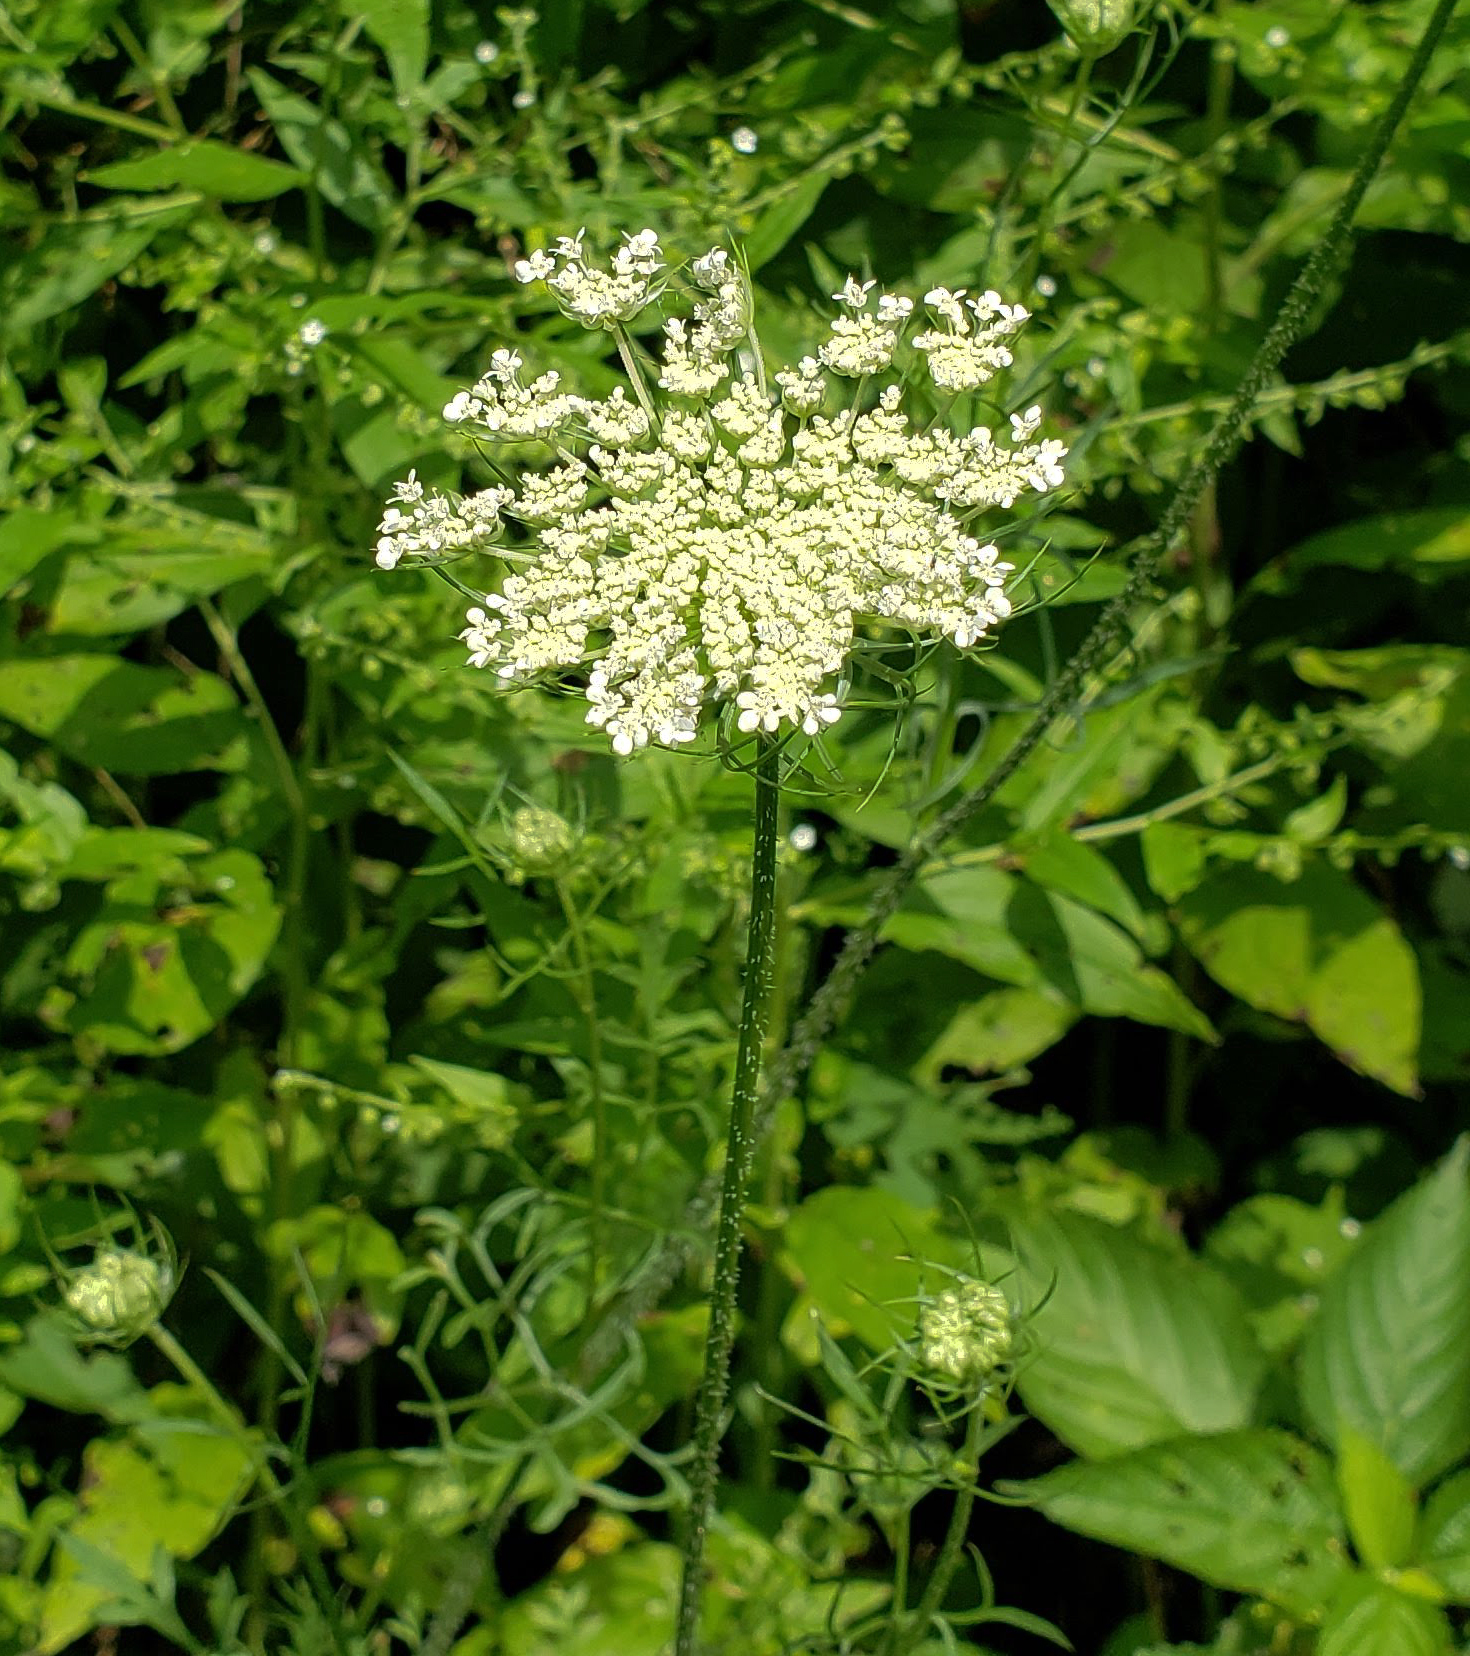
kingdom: Plantae
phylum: Tracheophyta
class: Magnoliopsida
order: Apiales
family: Apiaceae
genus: Daucus
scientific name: Daucus carota
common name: Wild carrot
